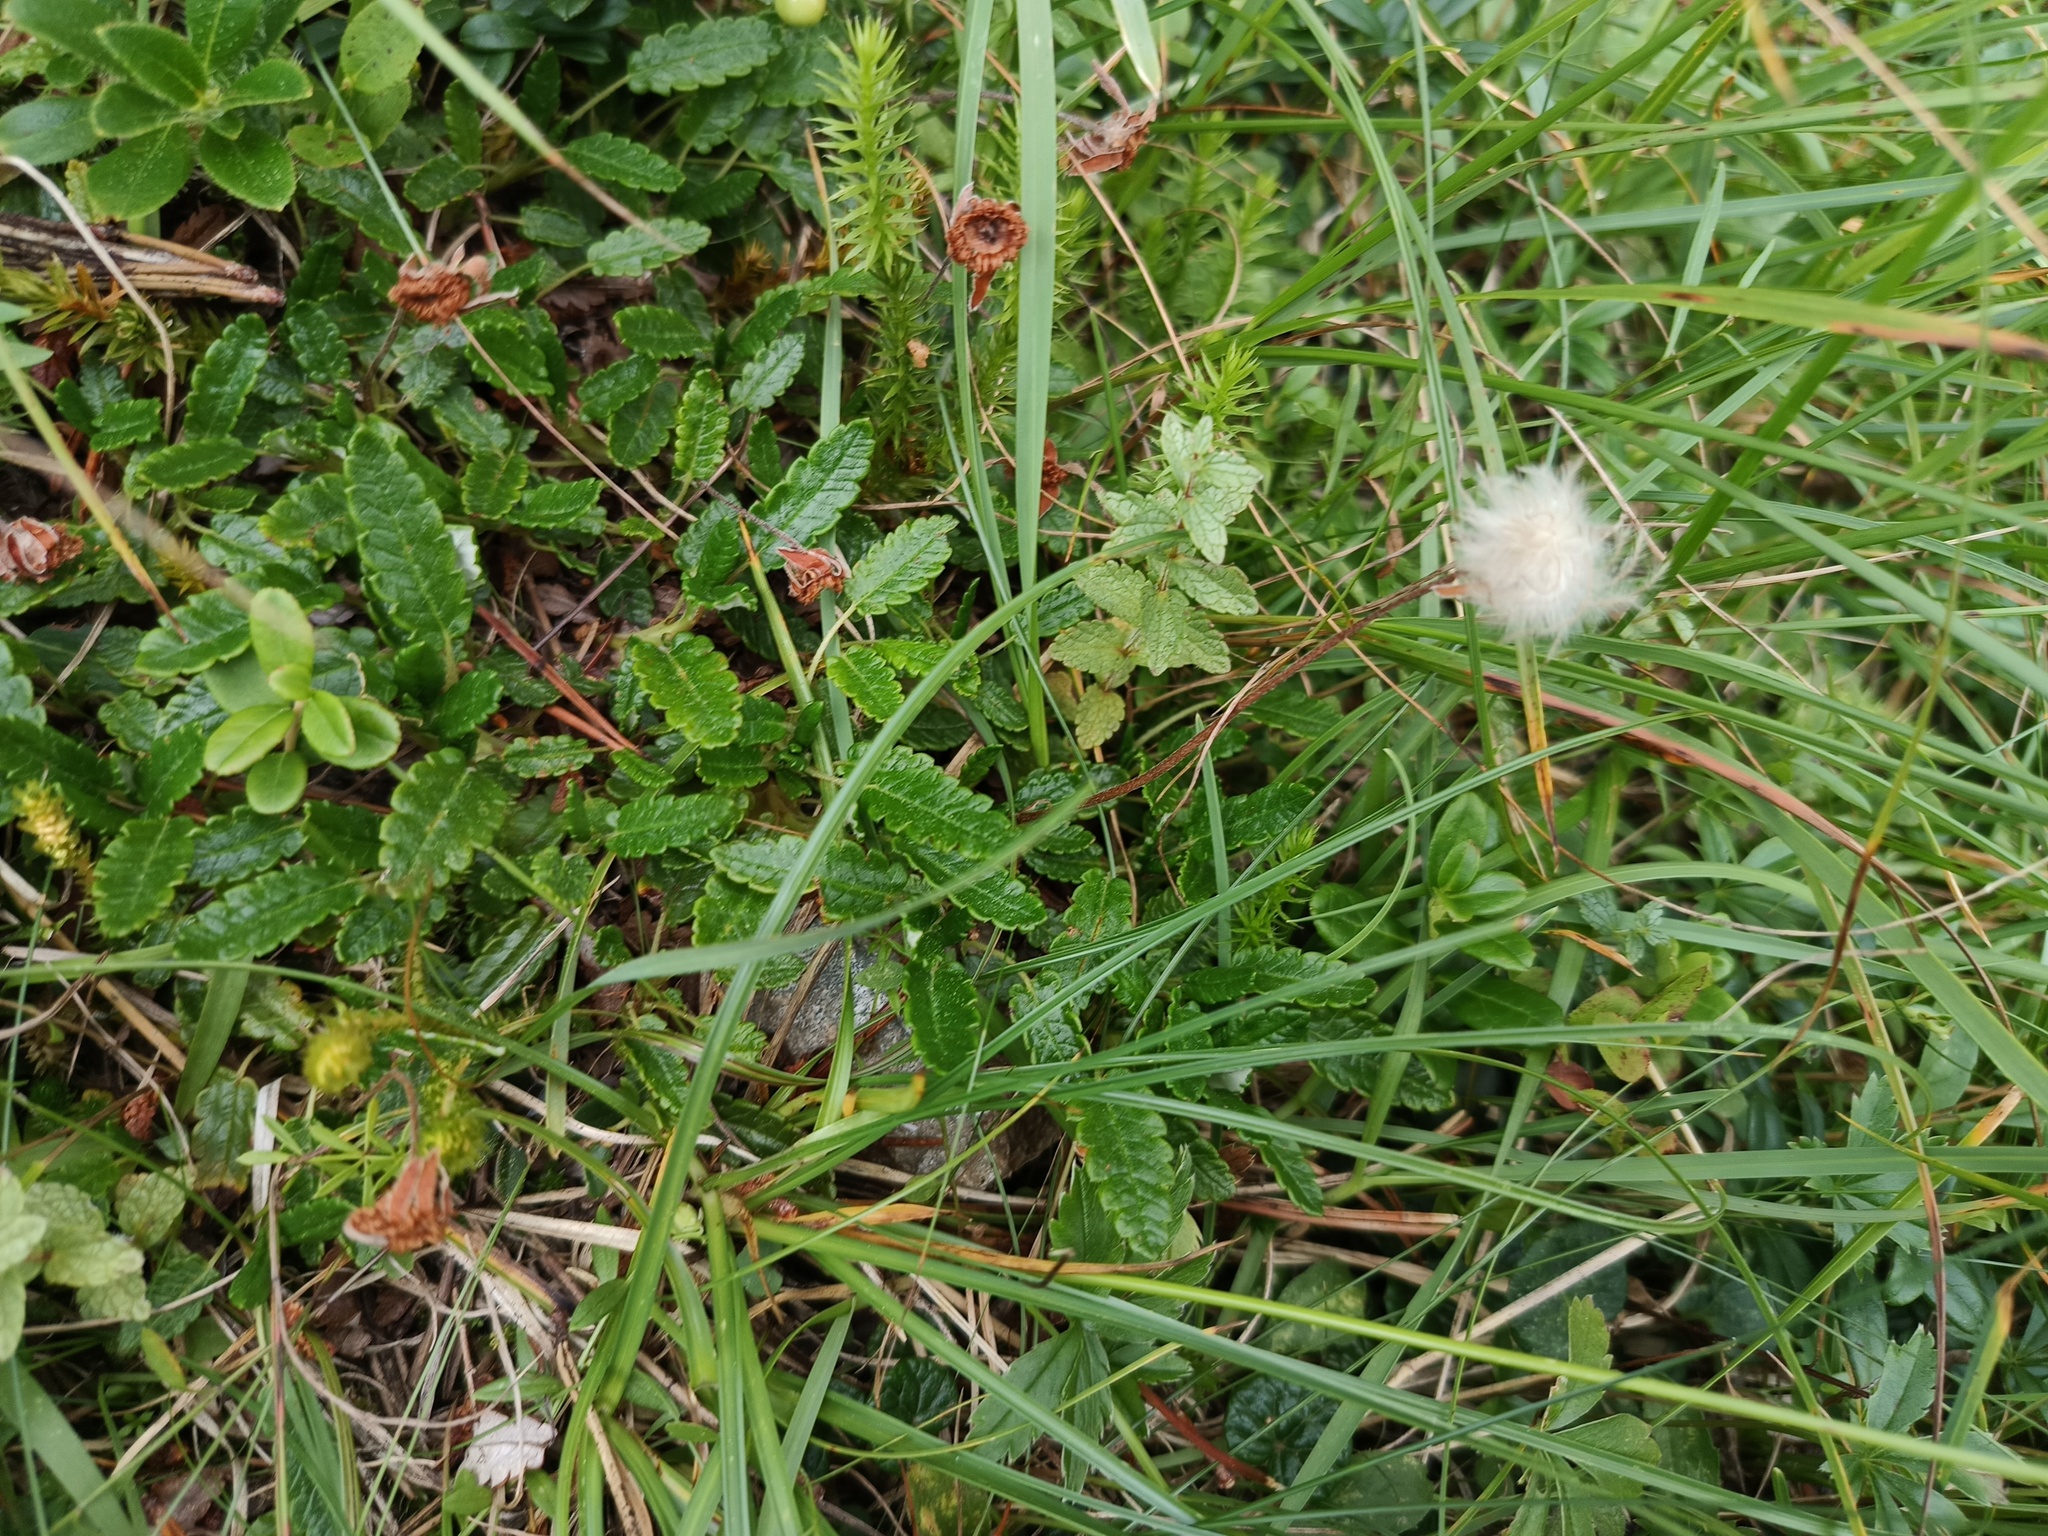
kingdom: Plantae
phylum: Tracheophyta
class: Magnoliopsida
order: Rosales
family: Rosaceae
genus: Dryas
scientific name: Dryas octopetala
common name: Eight-petal mountain-avens
